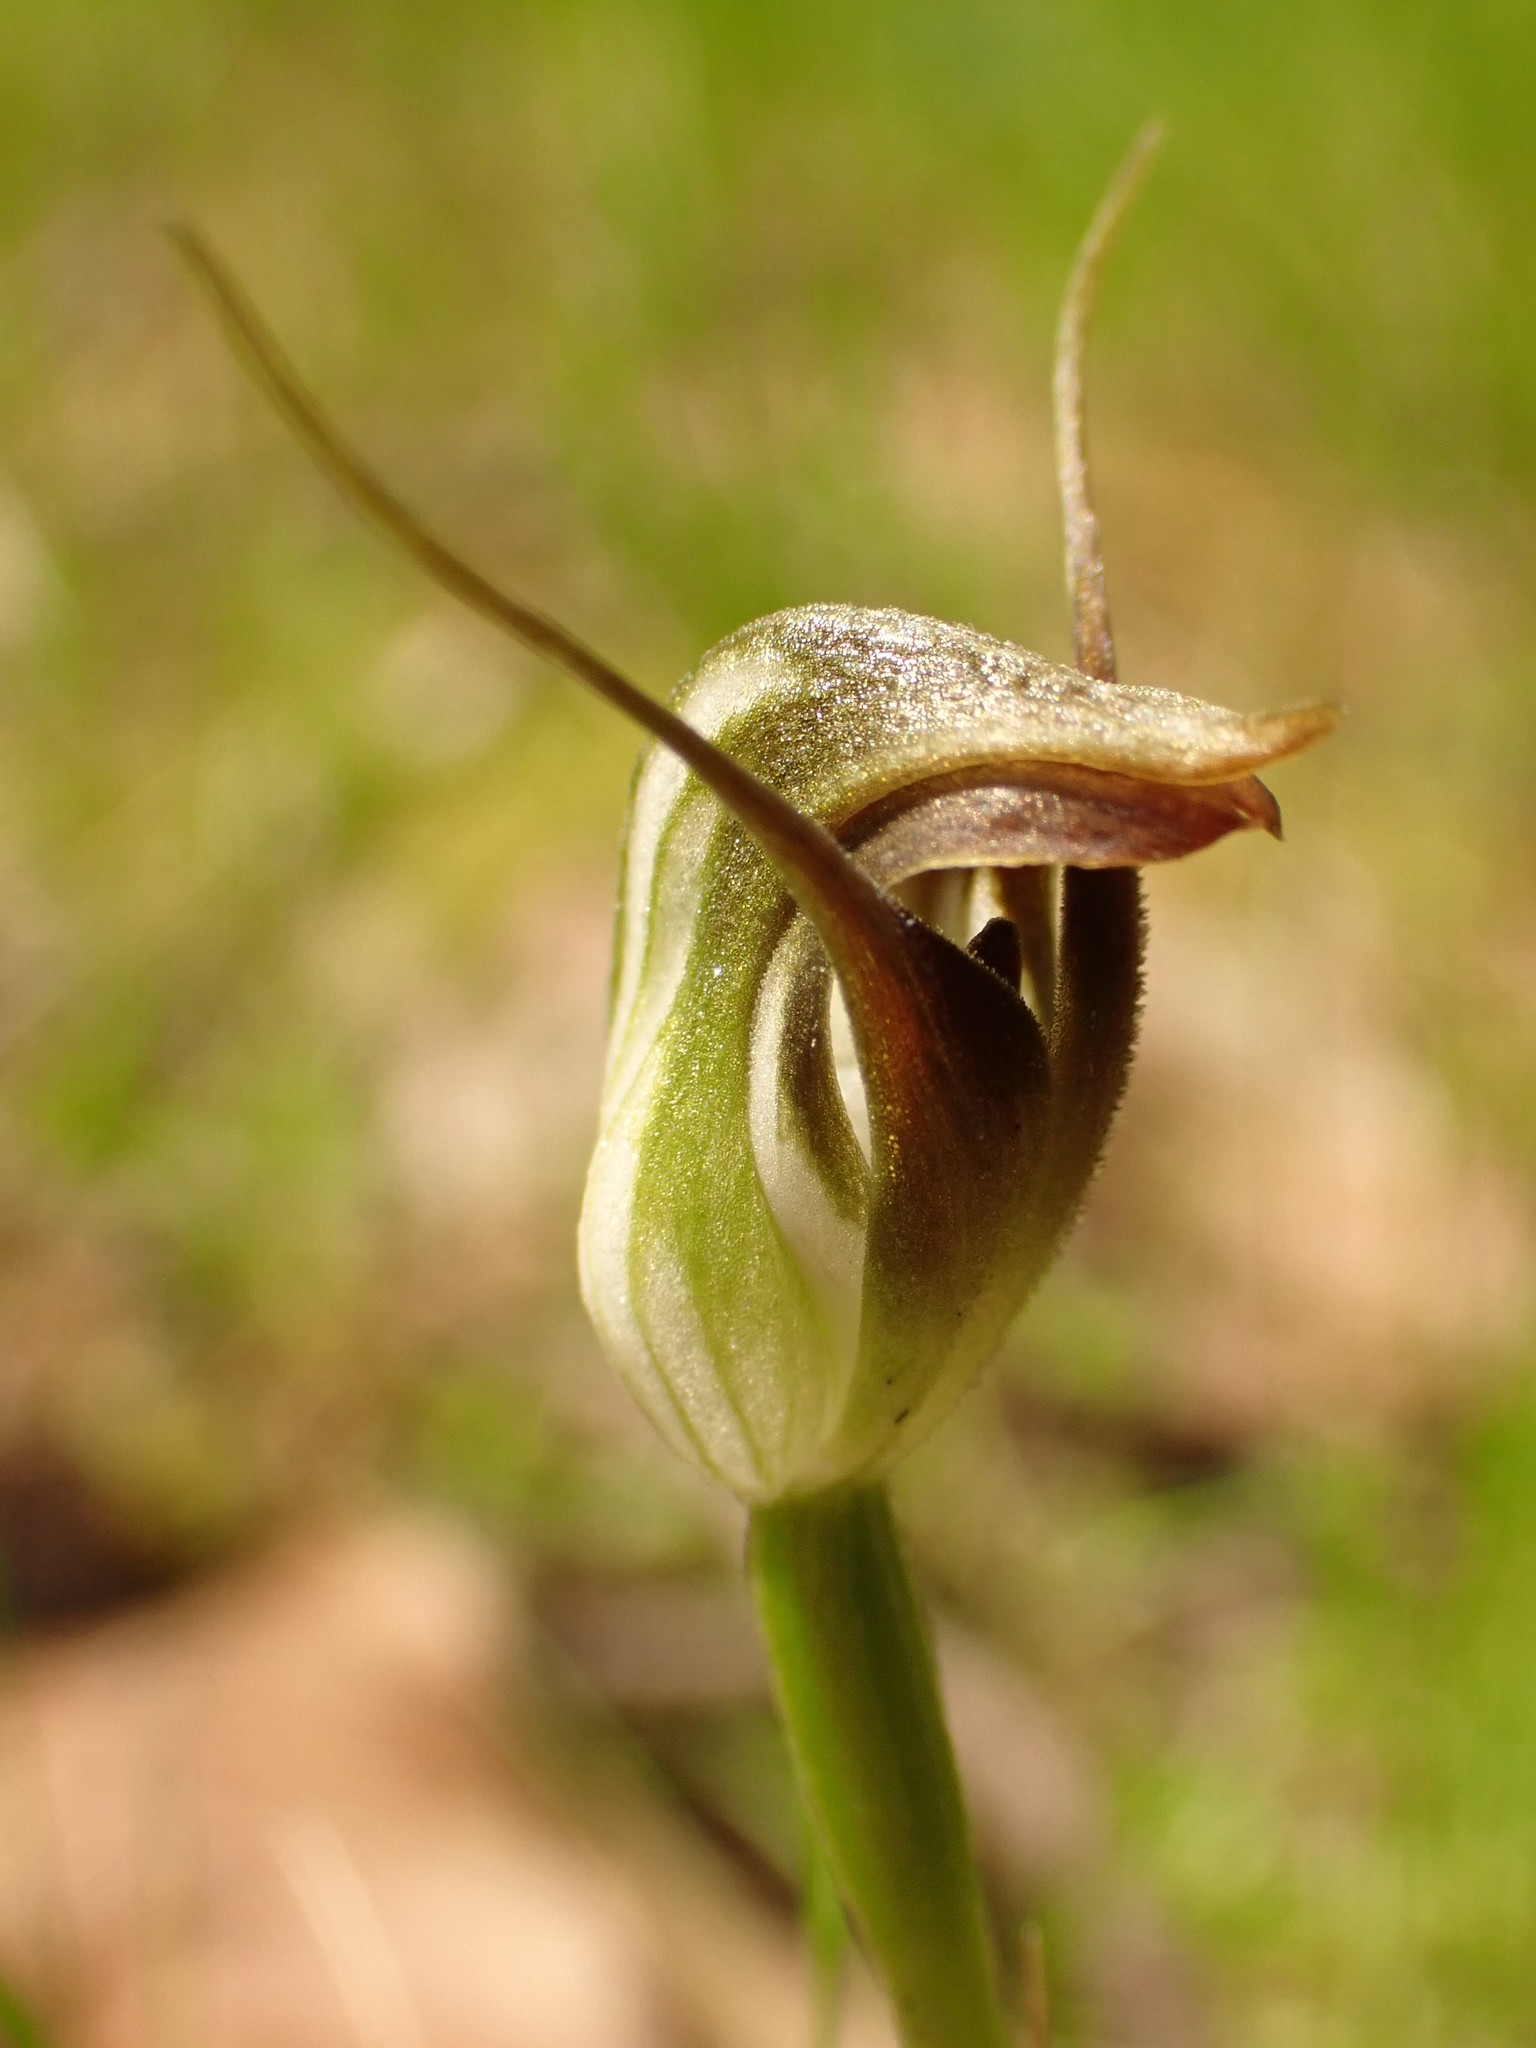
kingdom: Plantae
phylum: Tracheophyta
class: Liliopsida
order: Asparagales
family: Orchidaceae
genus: Pterostylis
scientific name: Pterostylis pedunculata
